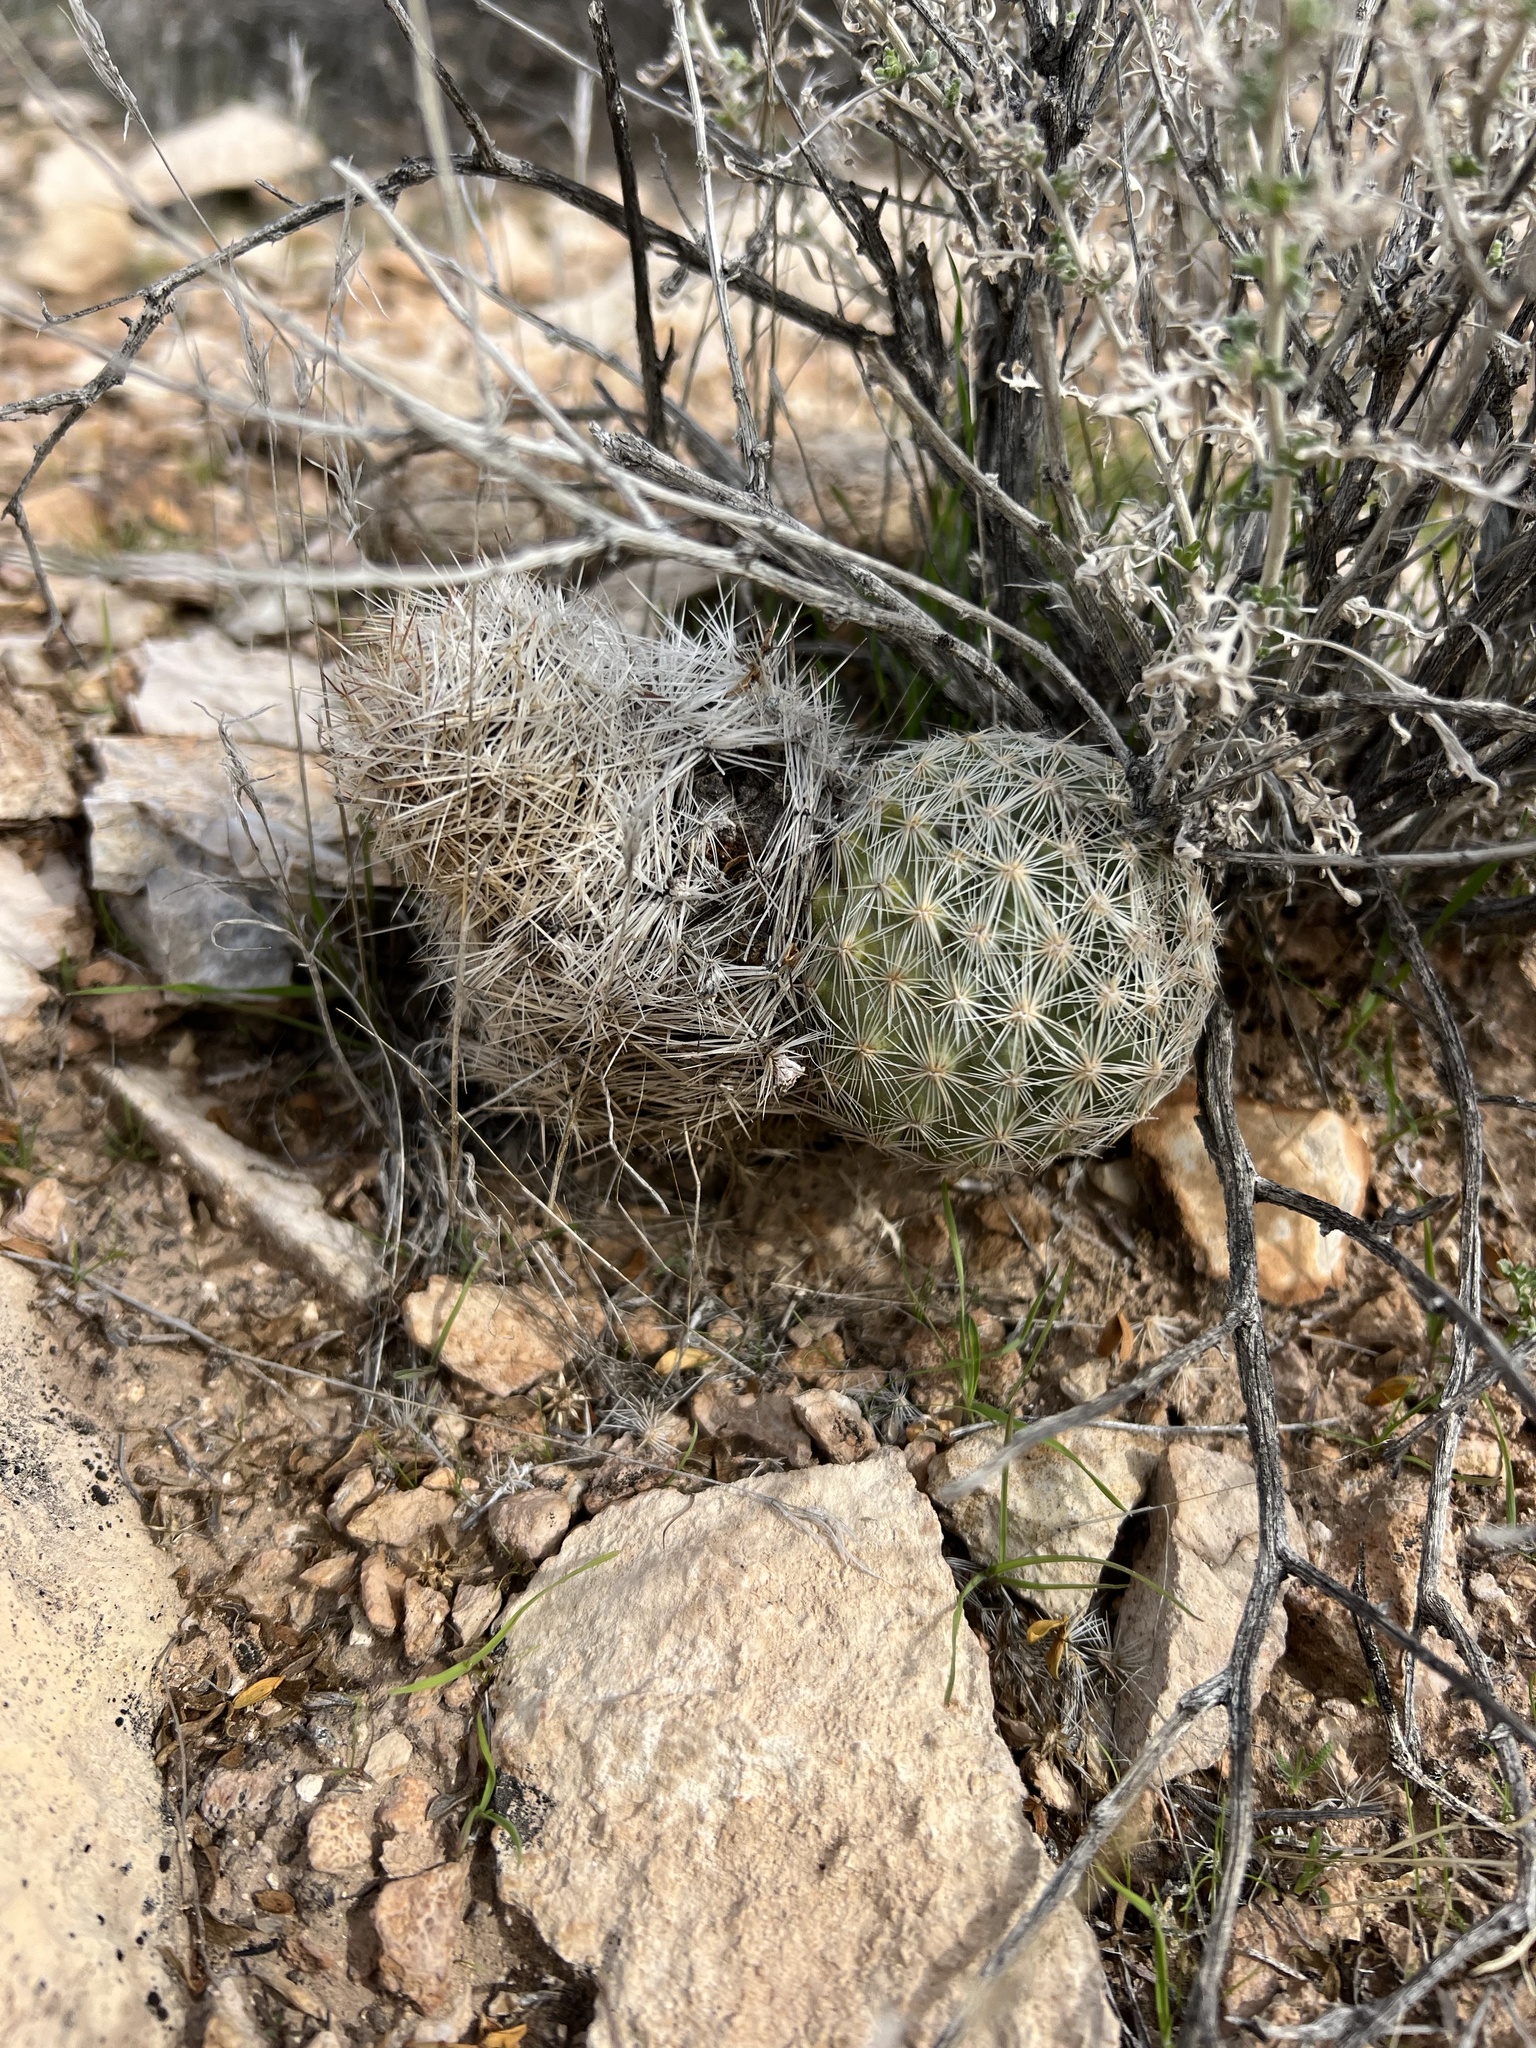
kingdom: Plantae
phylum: Tracheophyta
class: Magnoliopsida
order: Caryophyllales
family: Cactaceae
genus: Pelecyphora
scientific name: Pelecyphora dasyacantha
